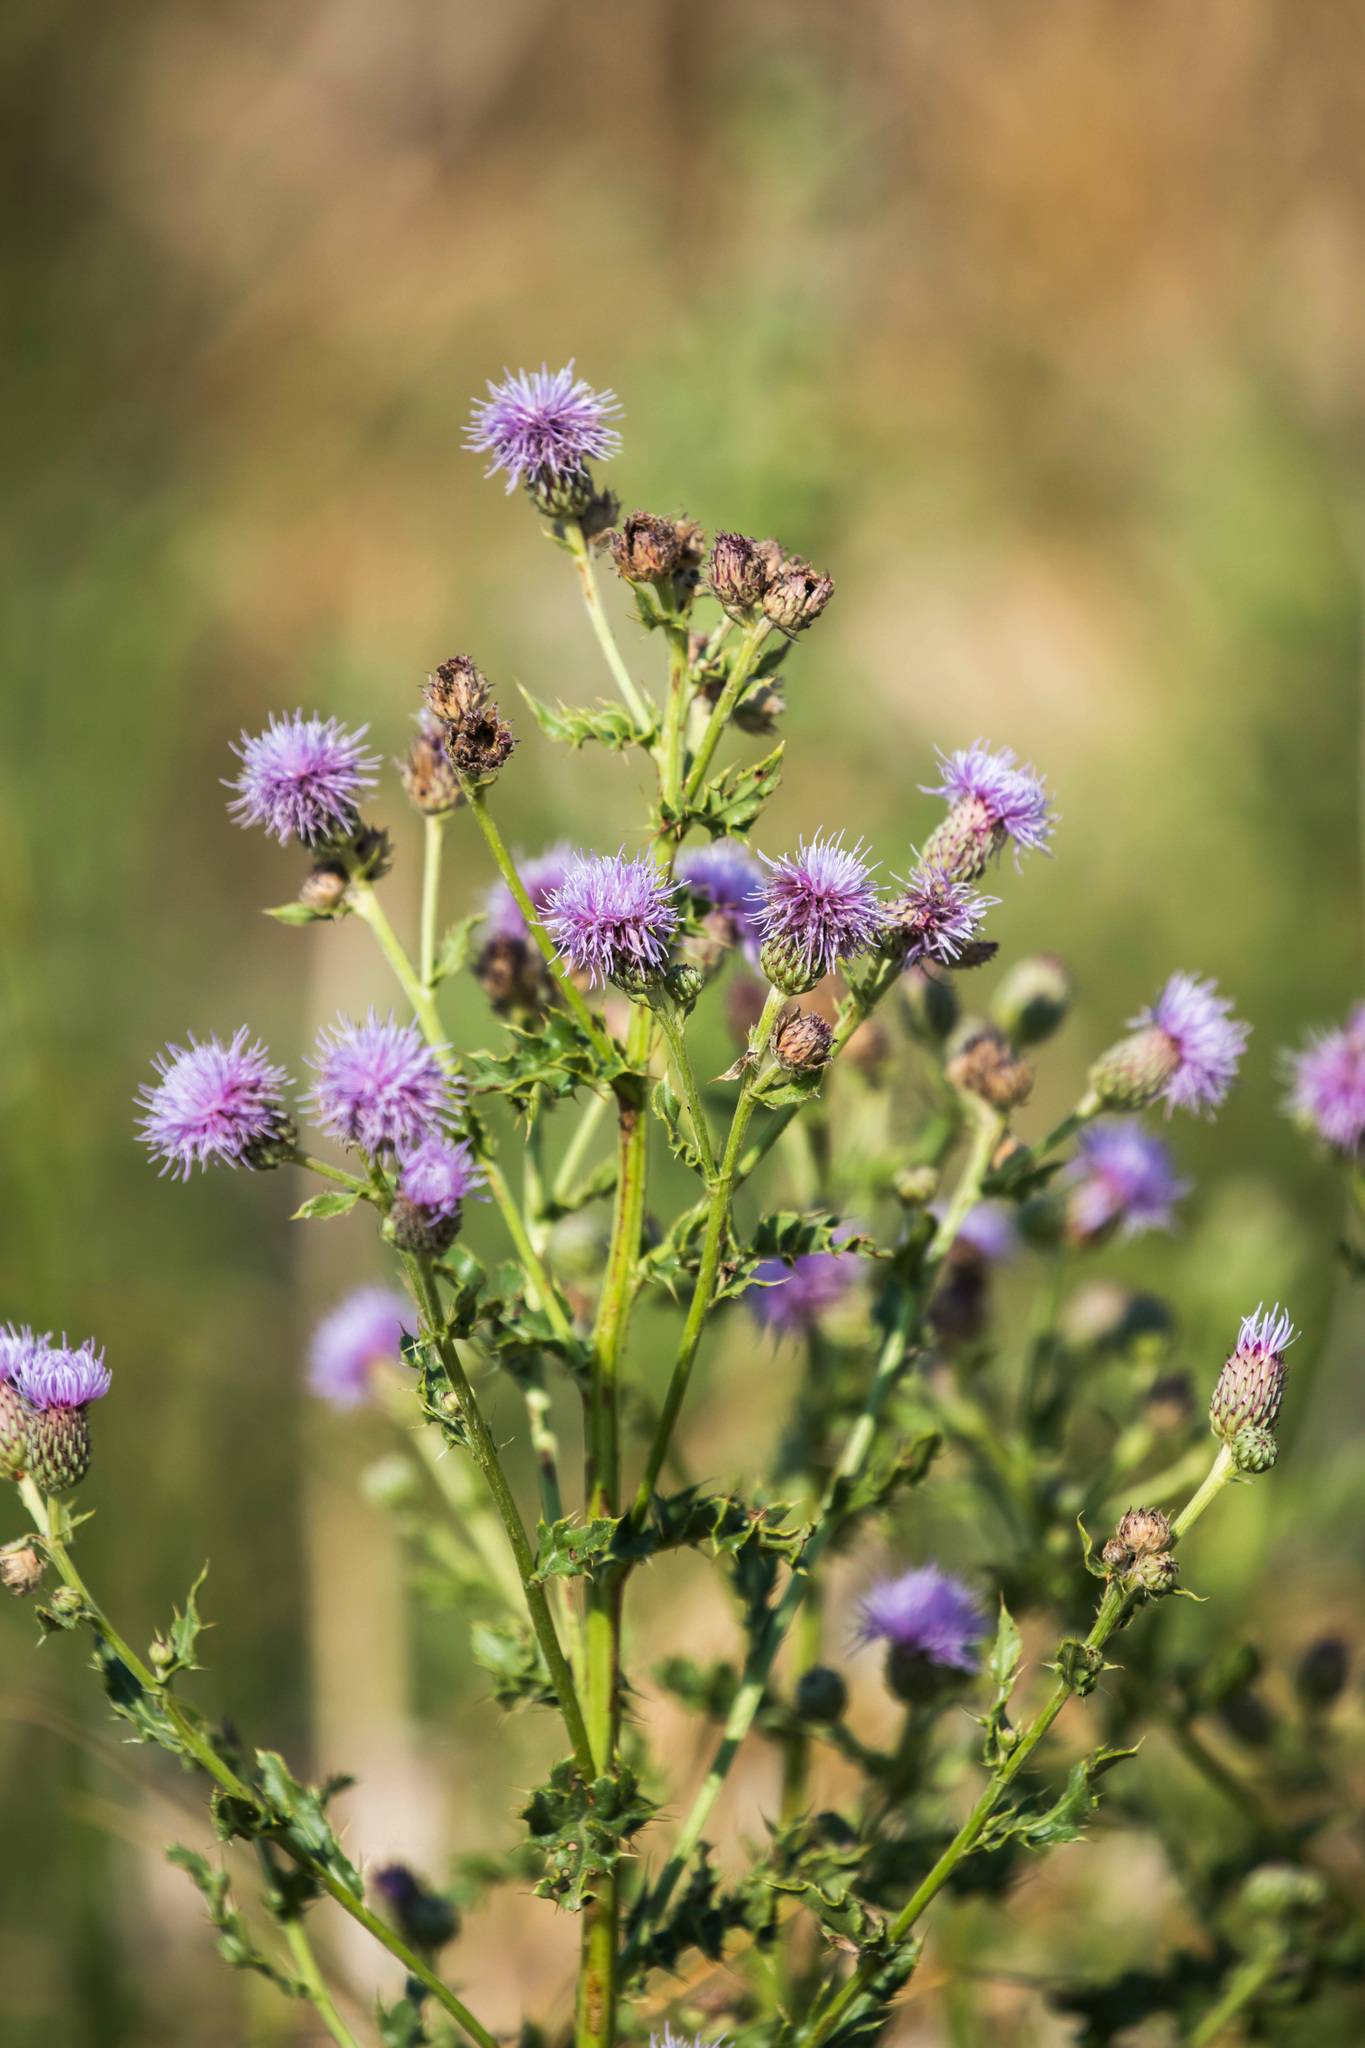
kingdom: Plantae
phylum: Tracheophyta
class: Magnoliopsida
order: Asterales
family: Asteraceae
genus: Cirsium
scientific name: Cirsium arvense
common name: Creeping thistle
